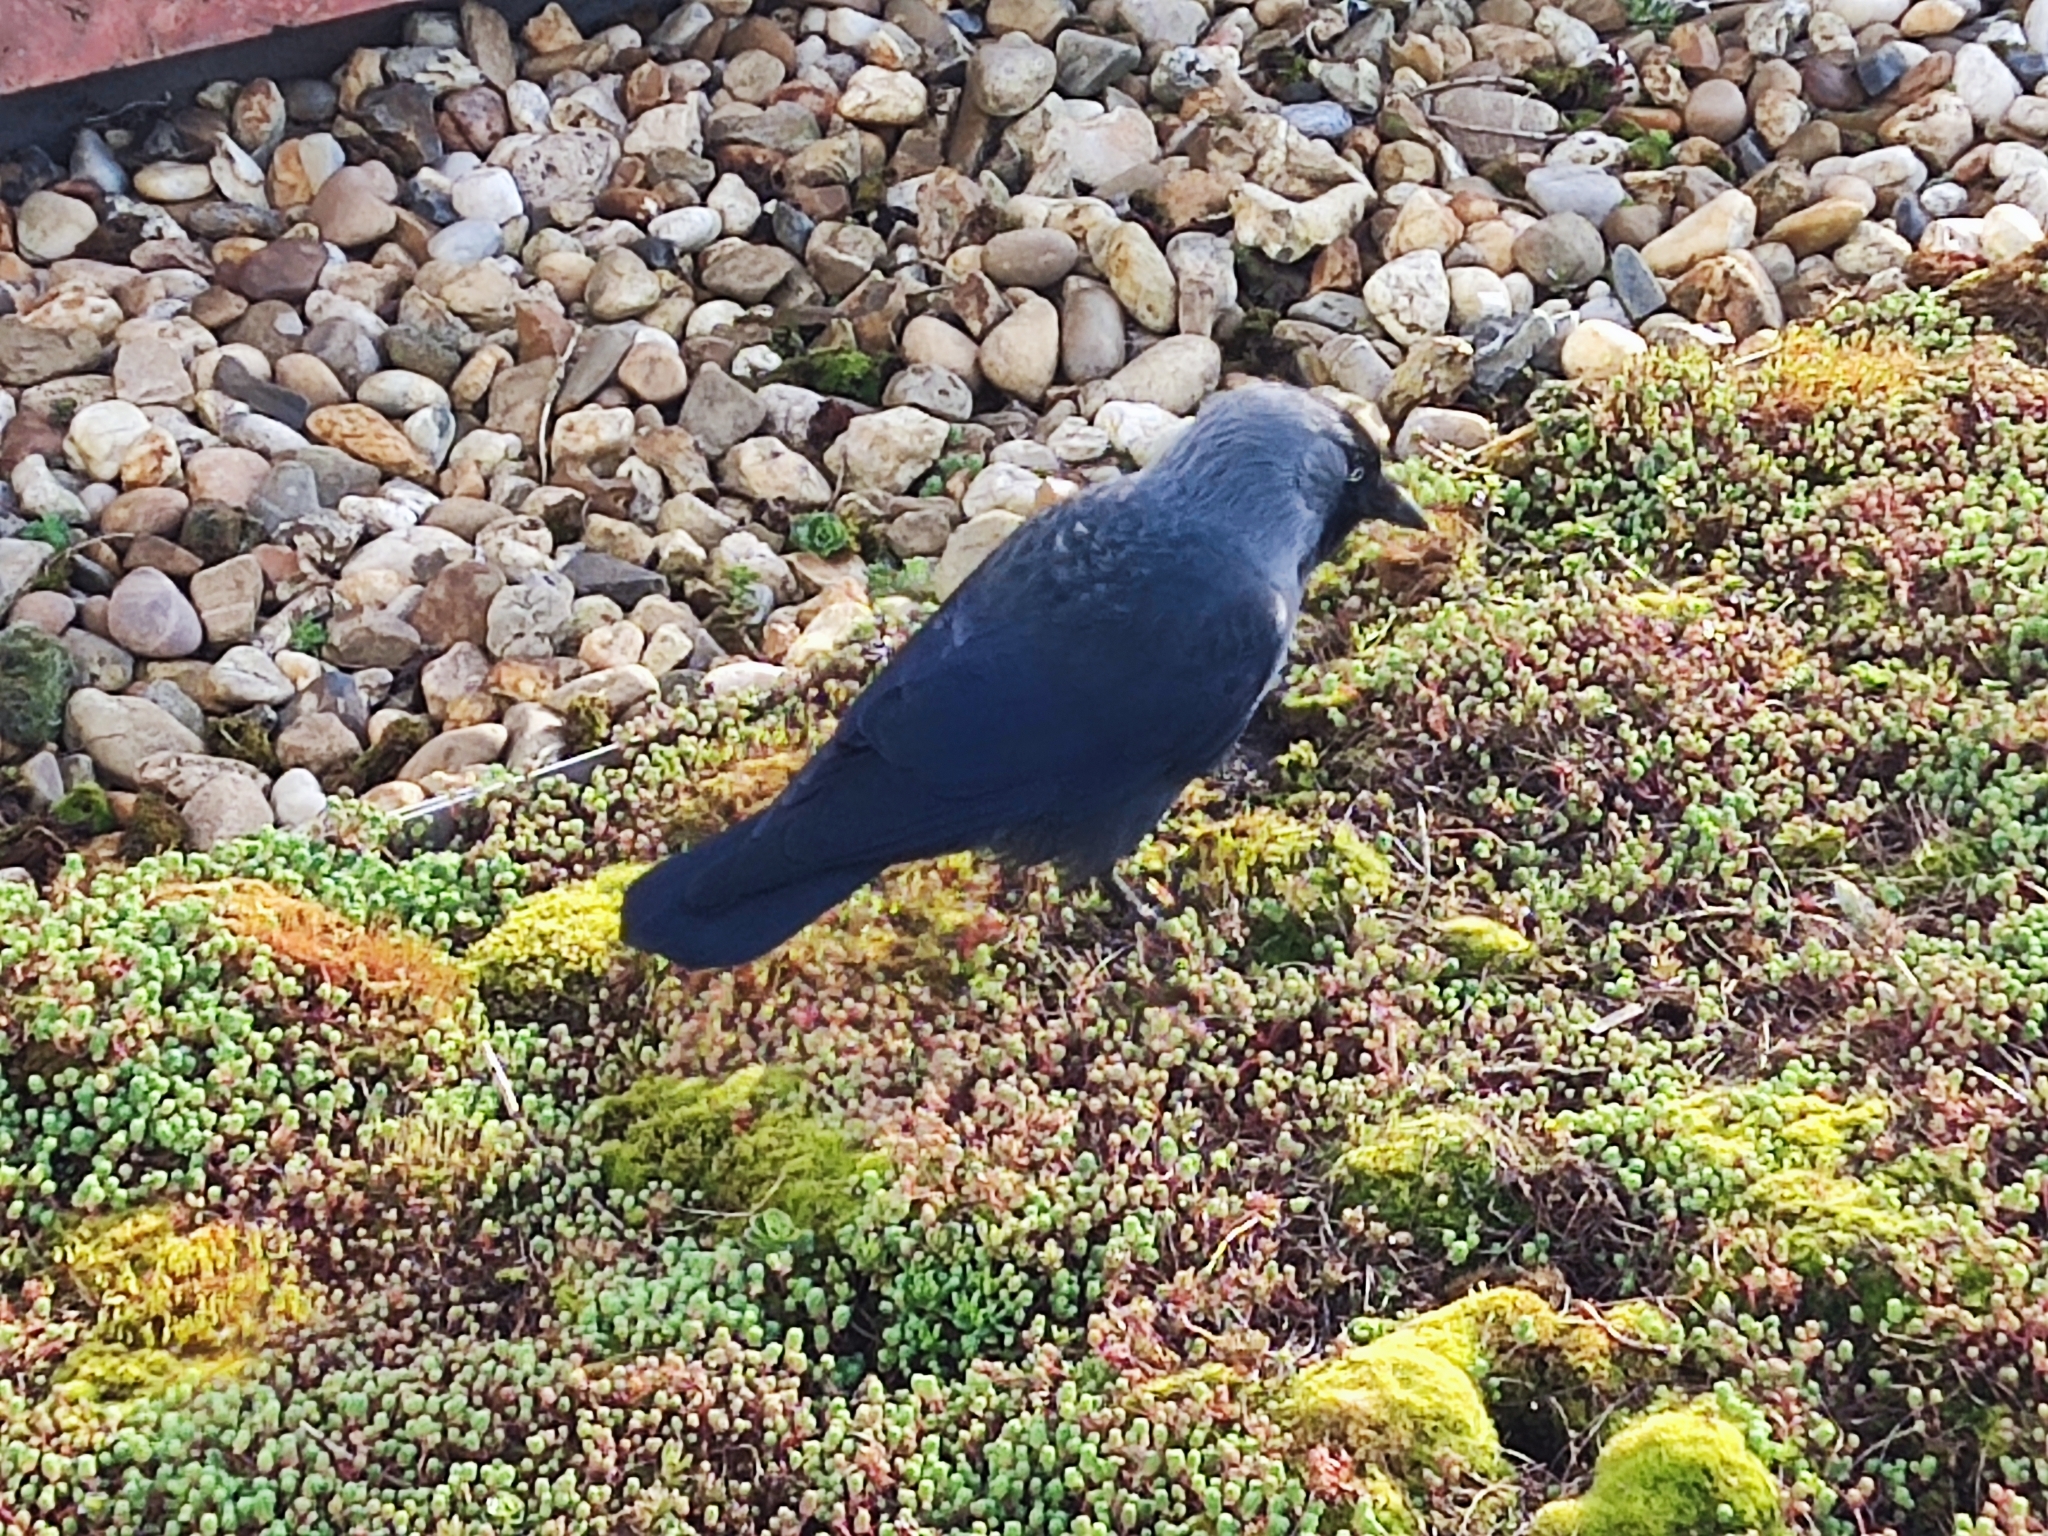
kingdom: Animalia
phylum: Chordata
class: Aves
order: Passeriformes
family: Corvidae
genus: Coloeus
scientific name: Coloeus monedula
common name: Western jackdaw
